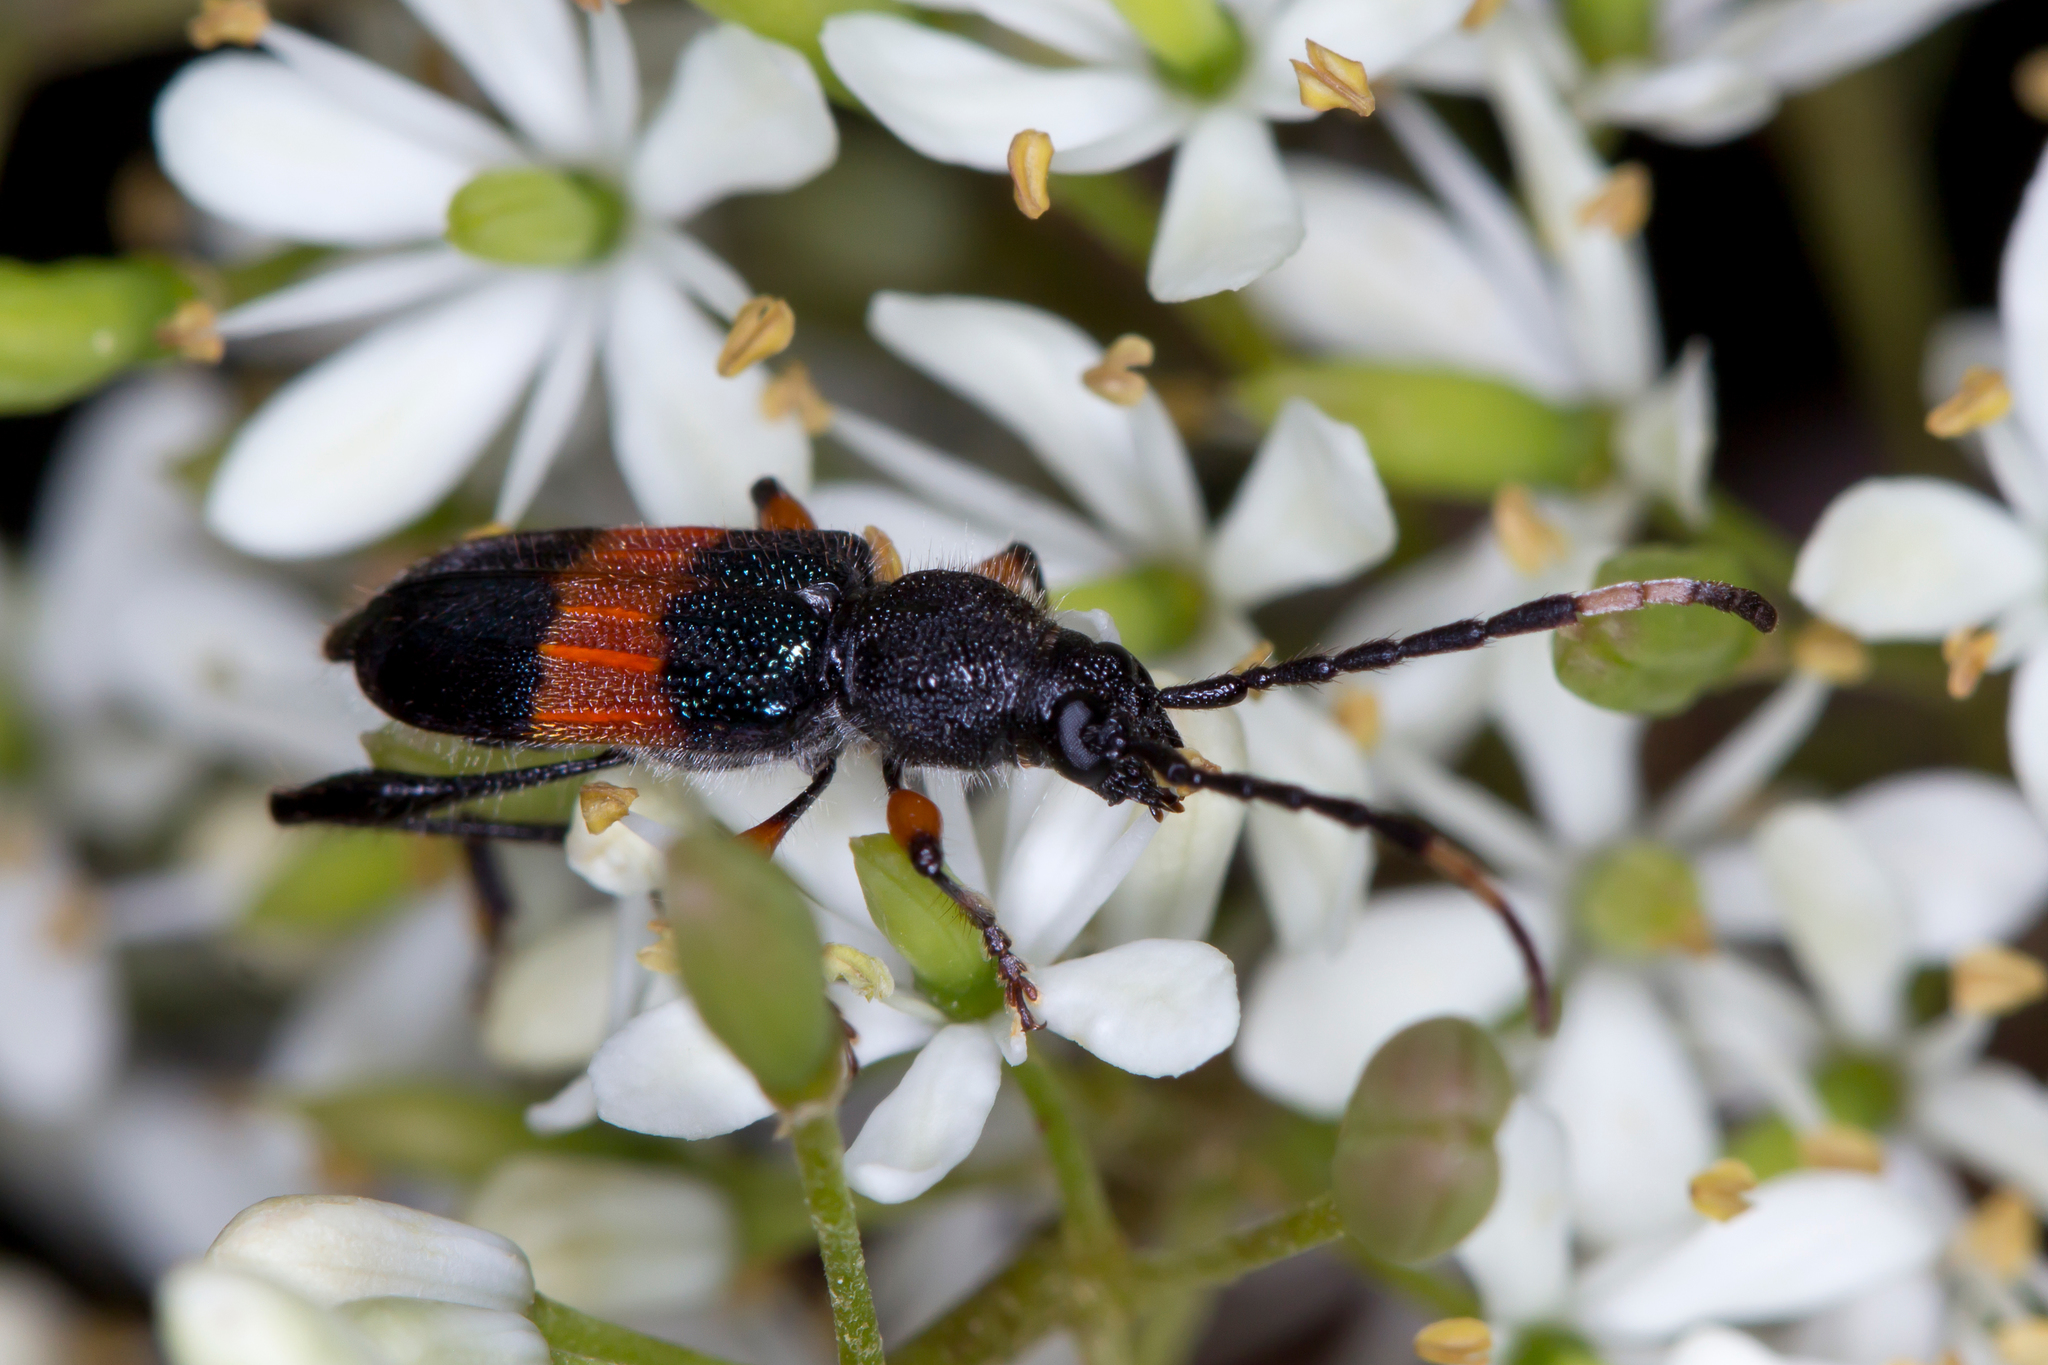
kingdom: Animalia
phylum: Arthropoda
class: Insecta
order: Coleoptera
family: Cerambycidae
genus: Obrida
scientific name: Obrida fascialis
